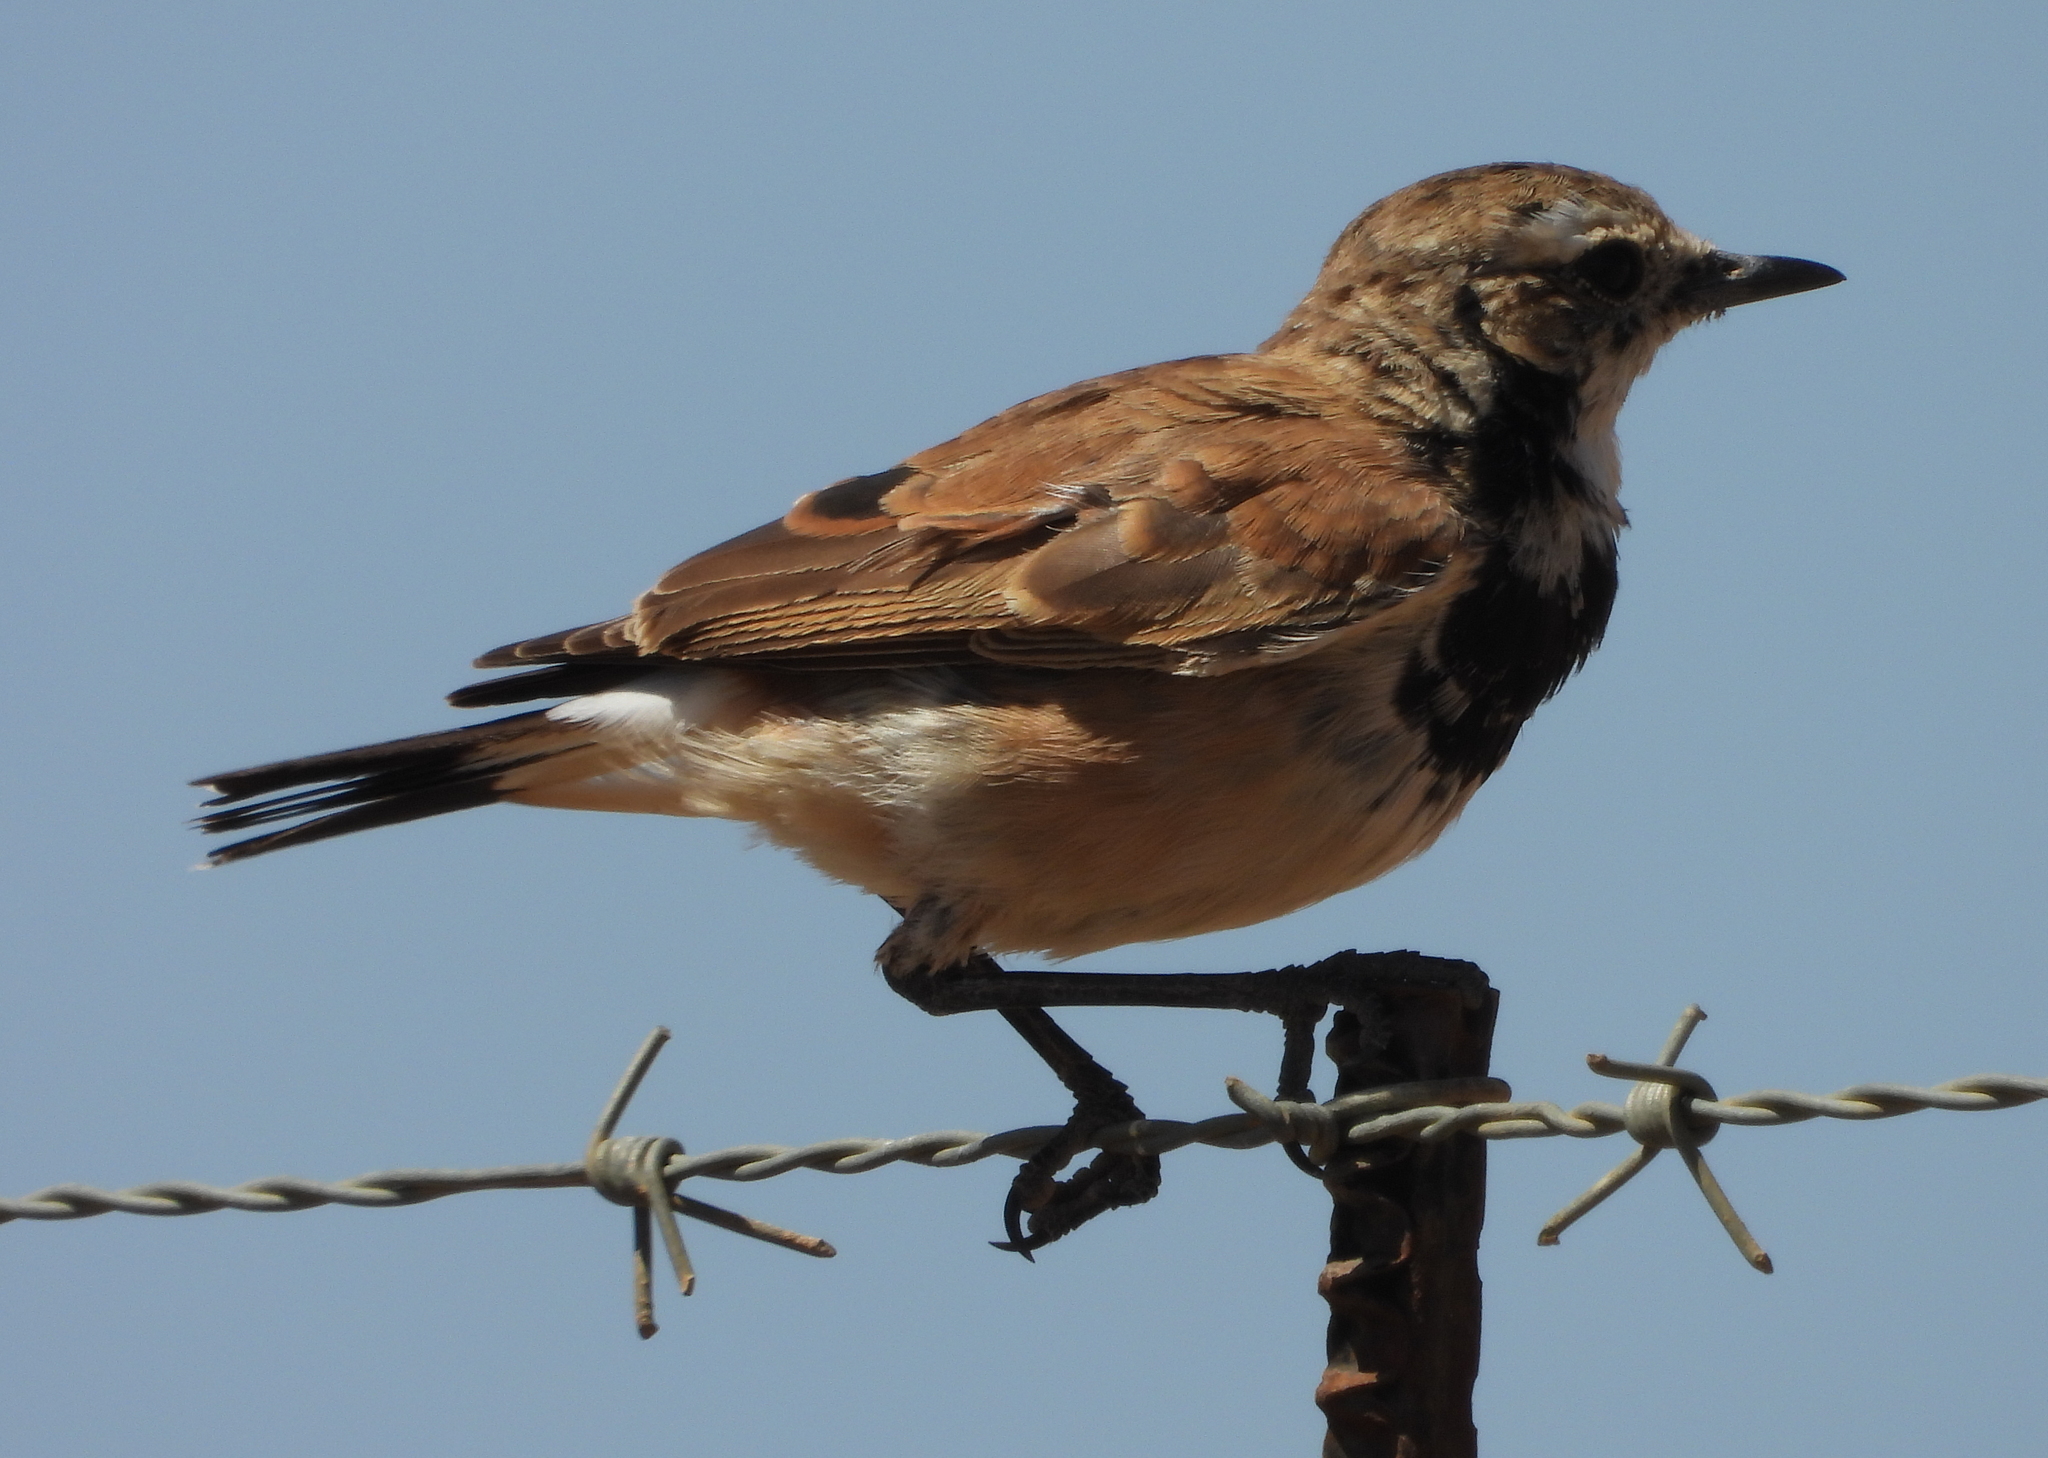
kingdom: Animalia
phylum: Chordata
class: Aves
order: Passeriformes
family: Muscicapidae
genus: Oenanthe
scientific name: Oenanthe pileata
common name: Capped wheatear
